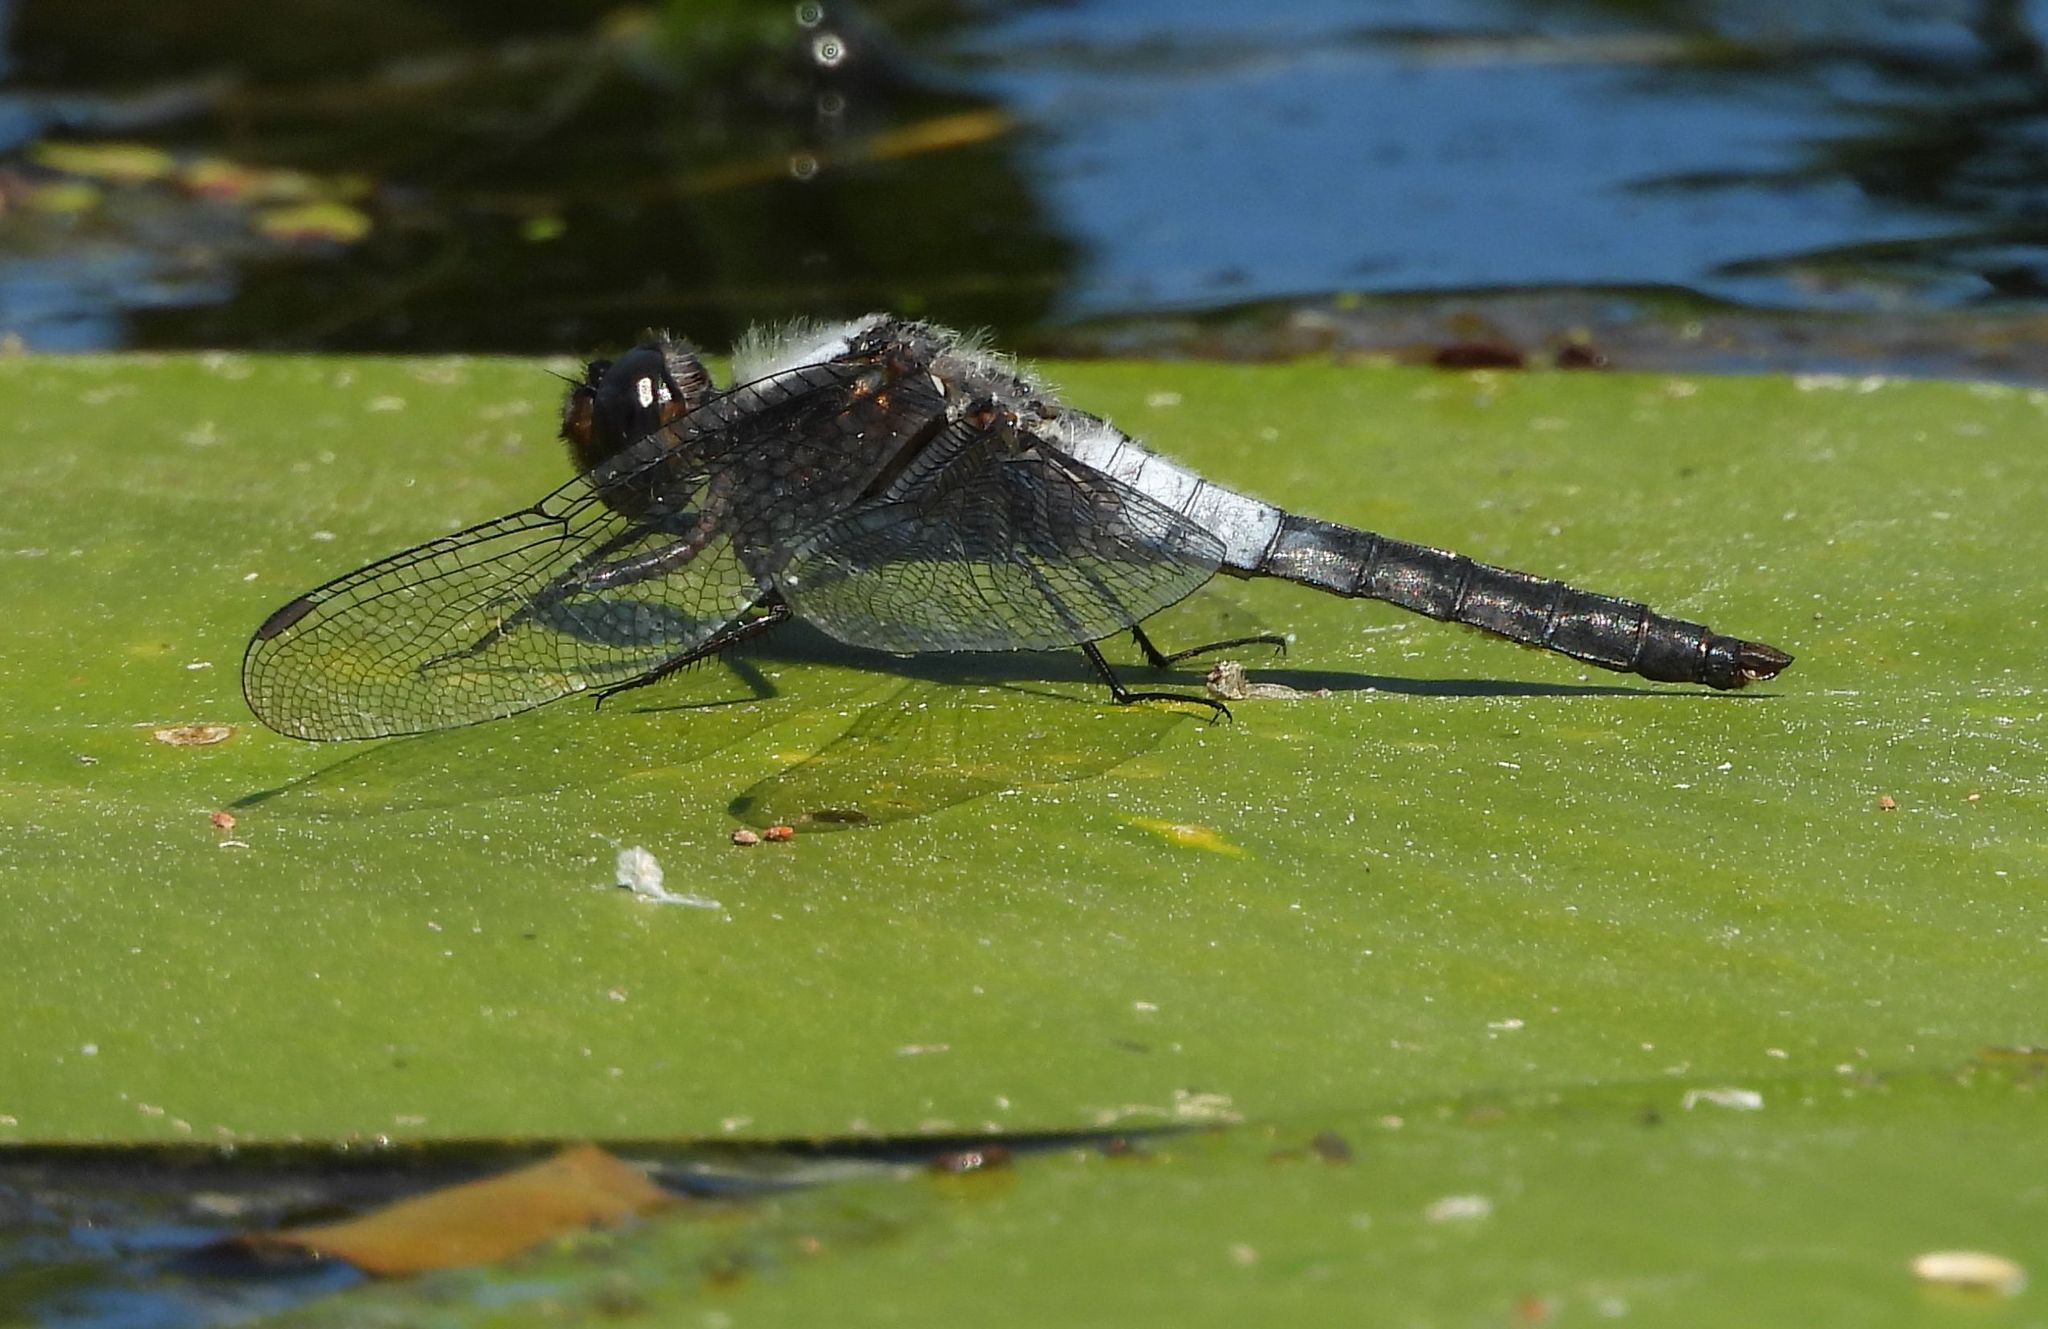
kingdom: Animalia
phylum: Arthropoda
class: Insecta
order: Odonata
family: Libellulidae
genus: Ladona
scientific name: Ladona julia
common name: Chalk-fronted corporal
